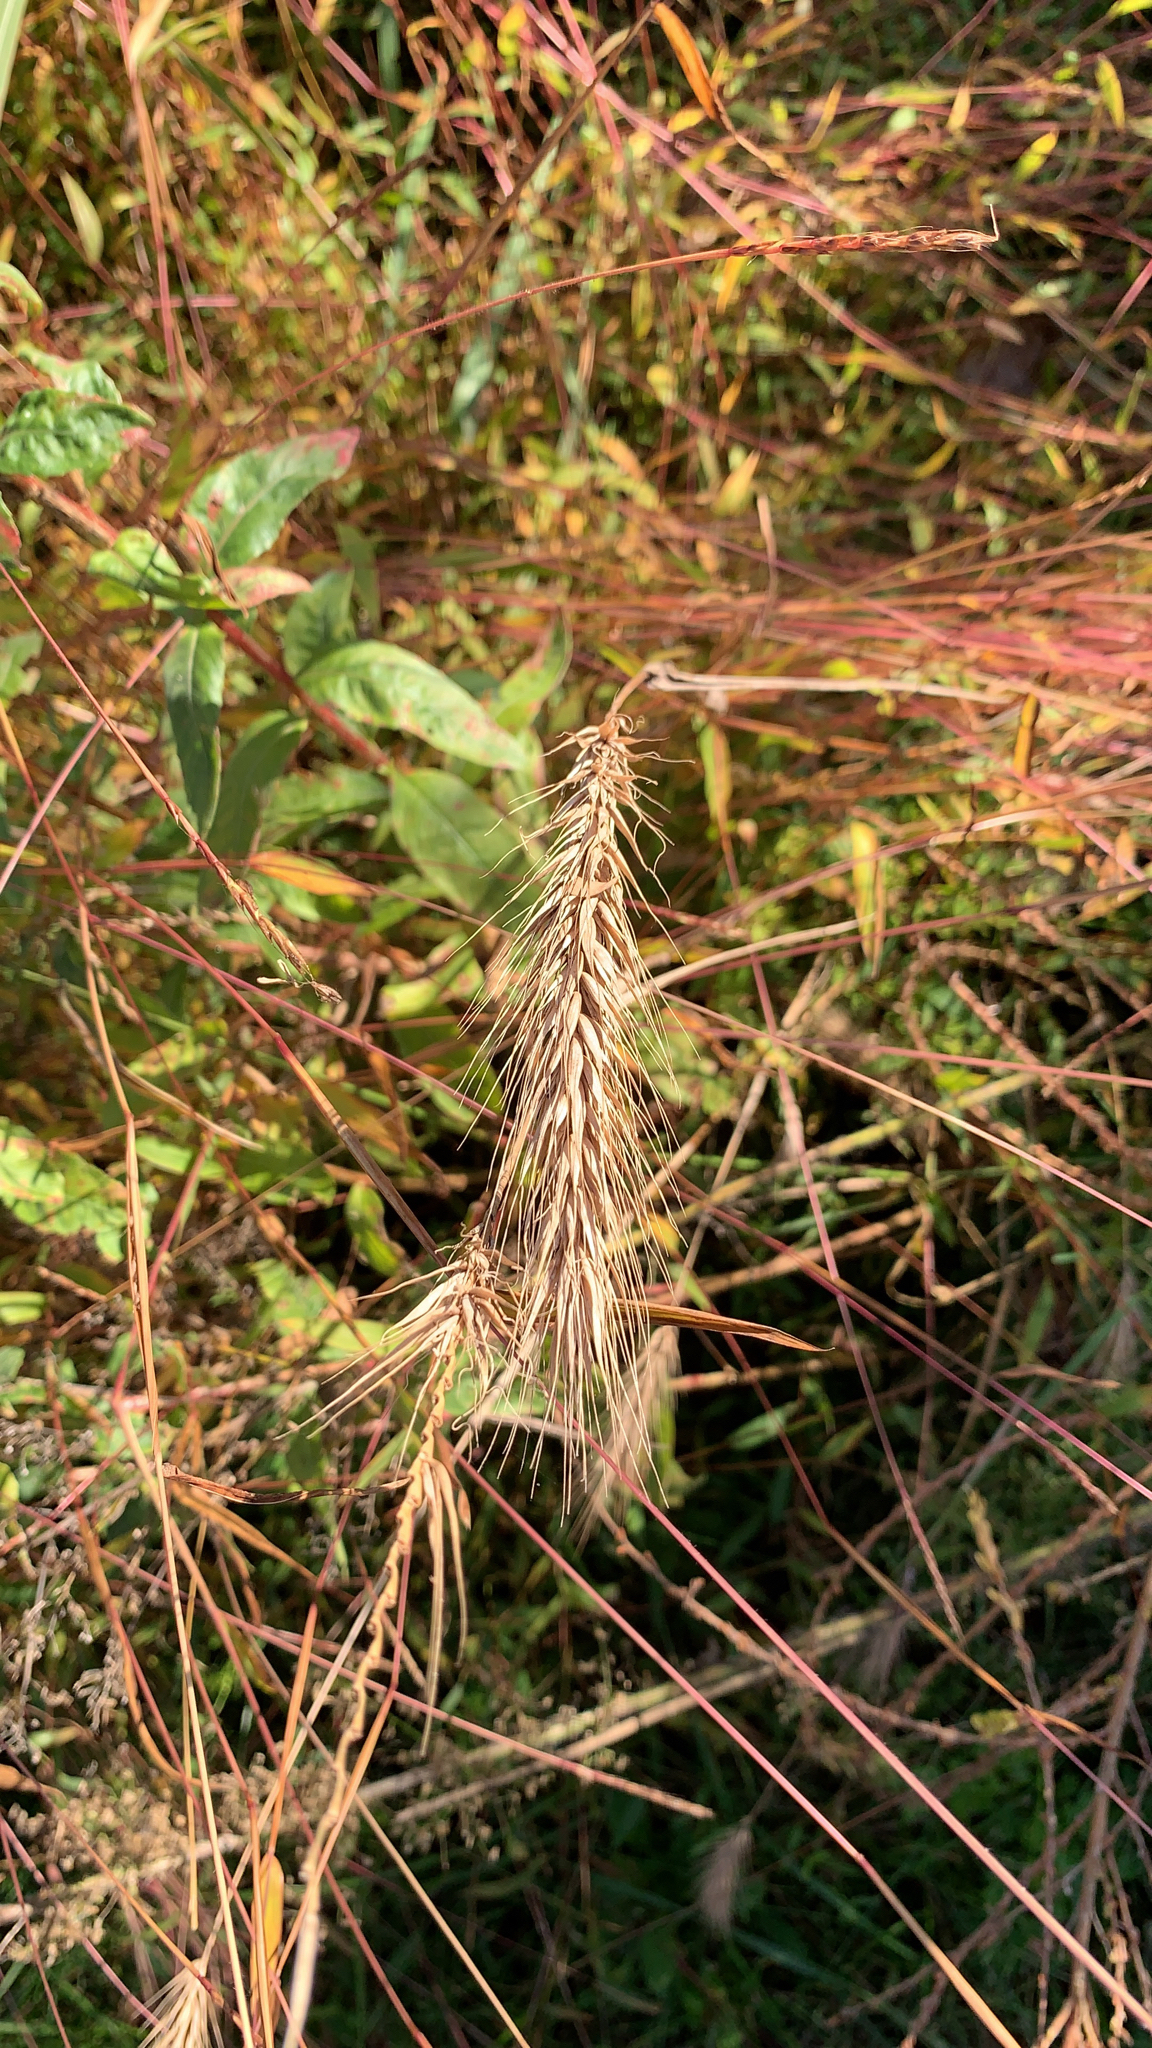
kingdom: Plantae
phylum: Tracheophyta
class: Liliopsida
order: Poales
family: Poaceae
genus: Elymus
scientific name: Elymus virginicus
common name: Common eastern wildrye
